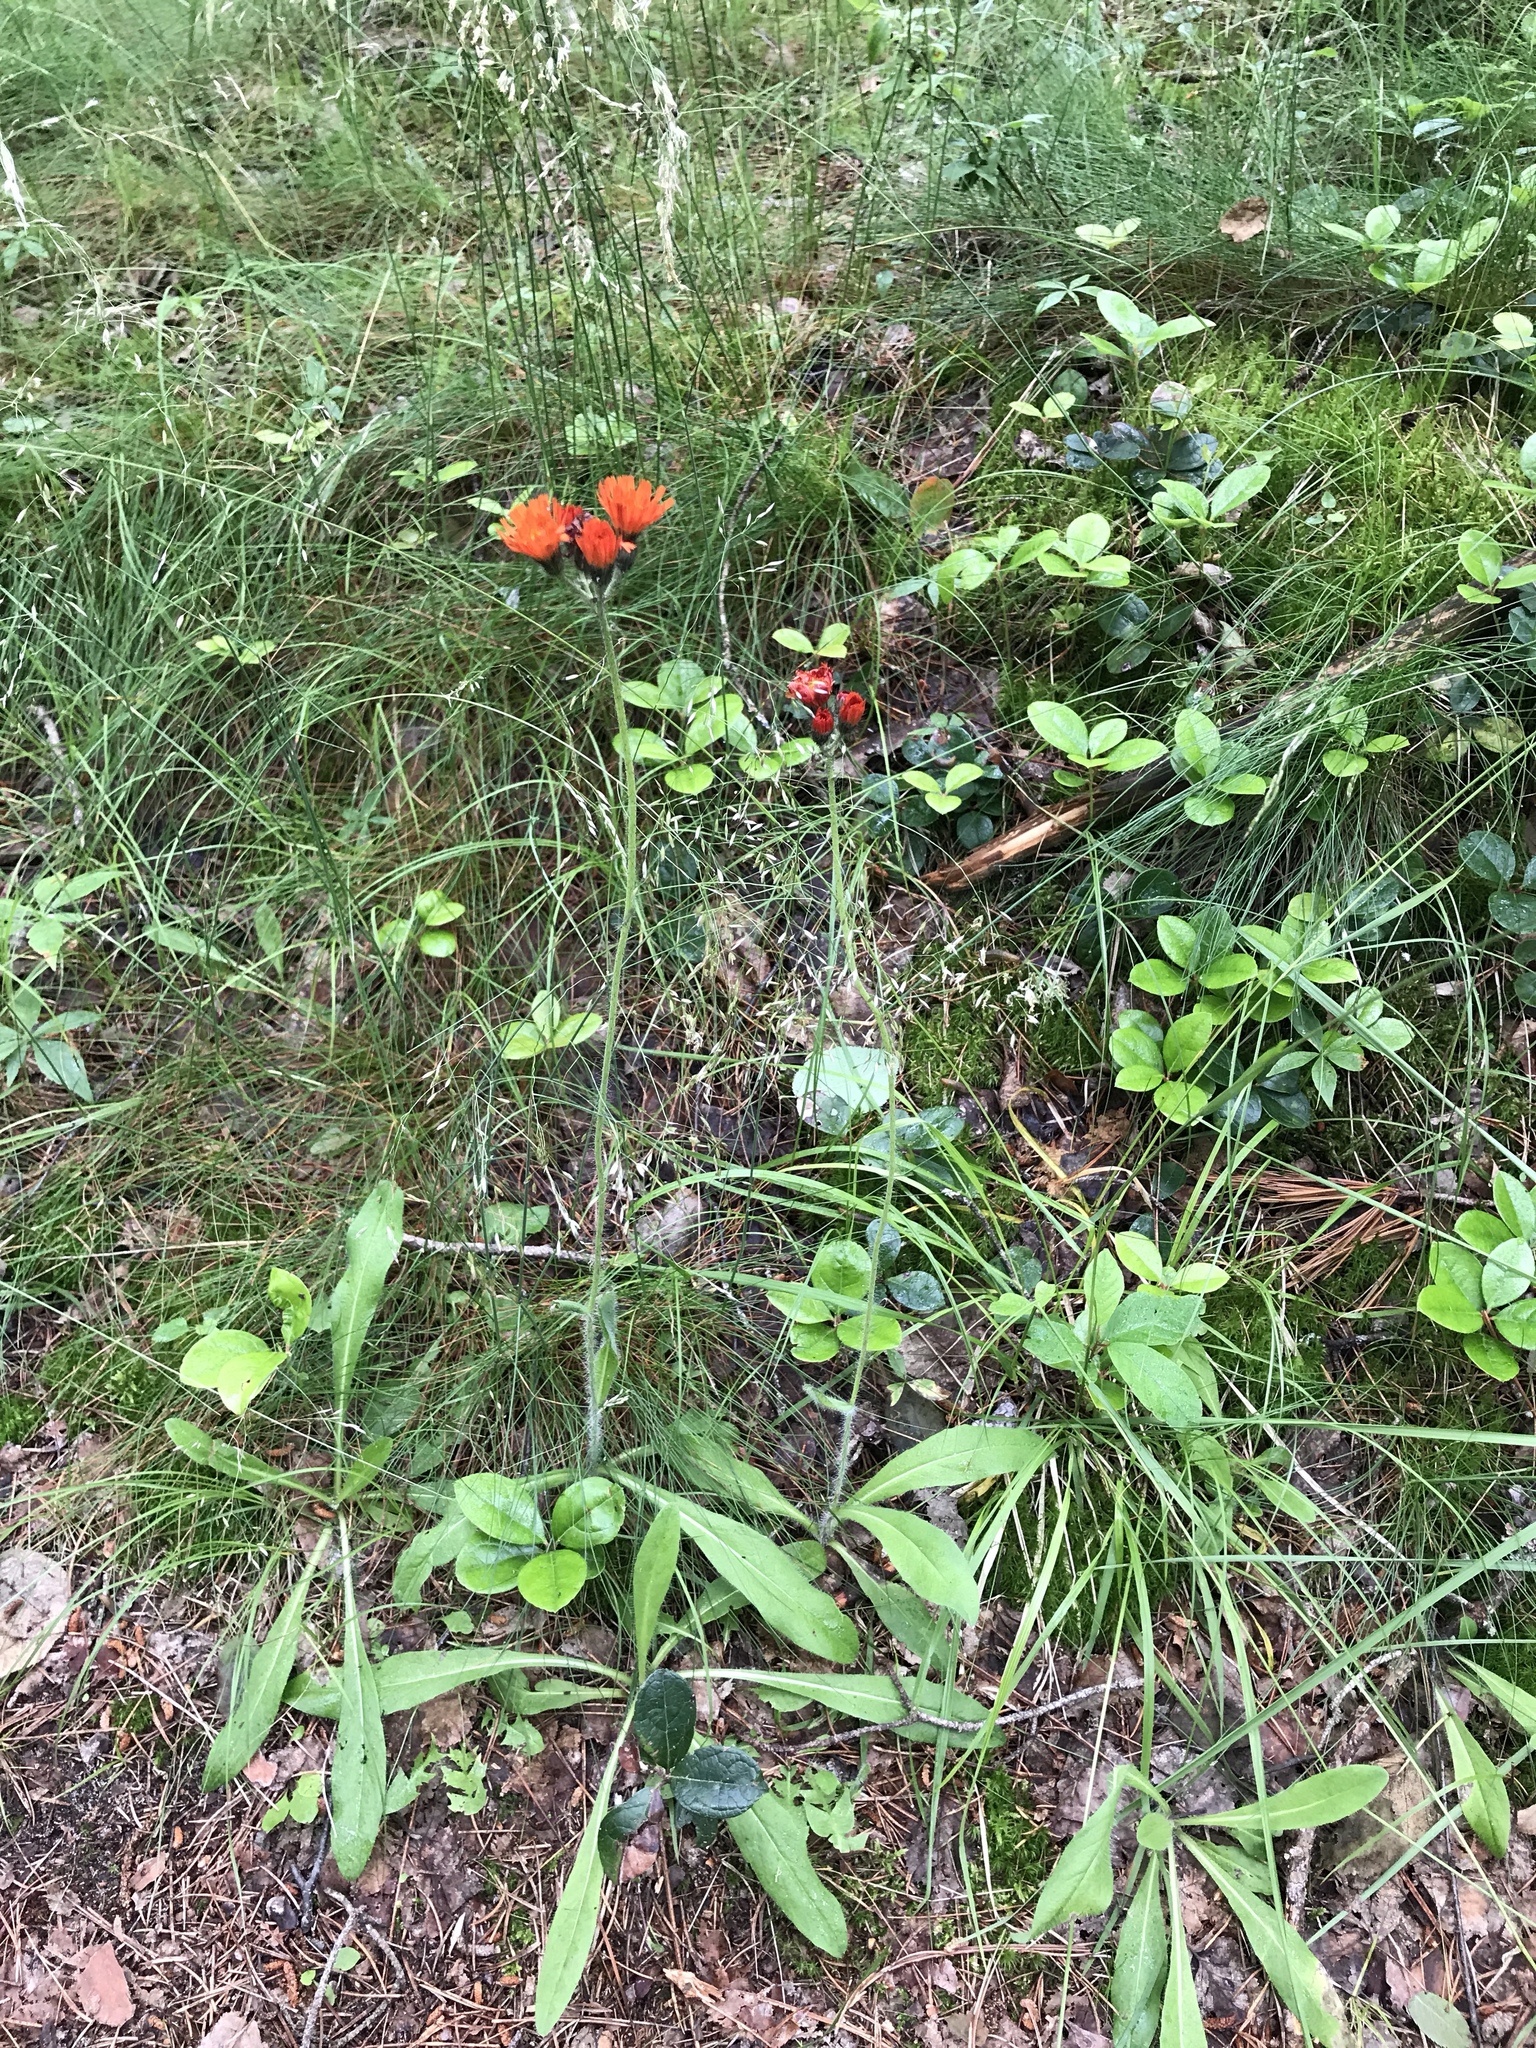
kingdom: Plantae
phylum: Tracheophyta
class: Magnoliopsida
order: Asterales
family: Asteraceae
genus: Pilosella
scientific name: Pilosella aurantiaca
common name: Fox-and-cubs
